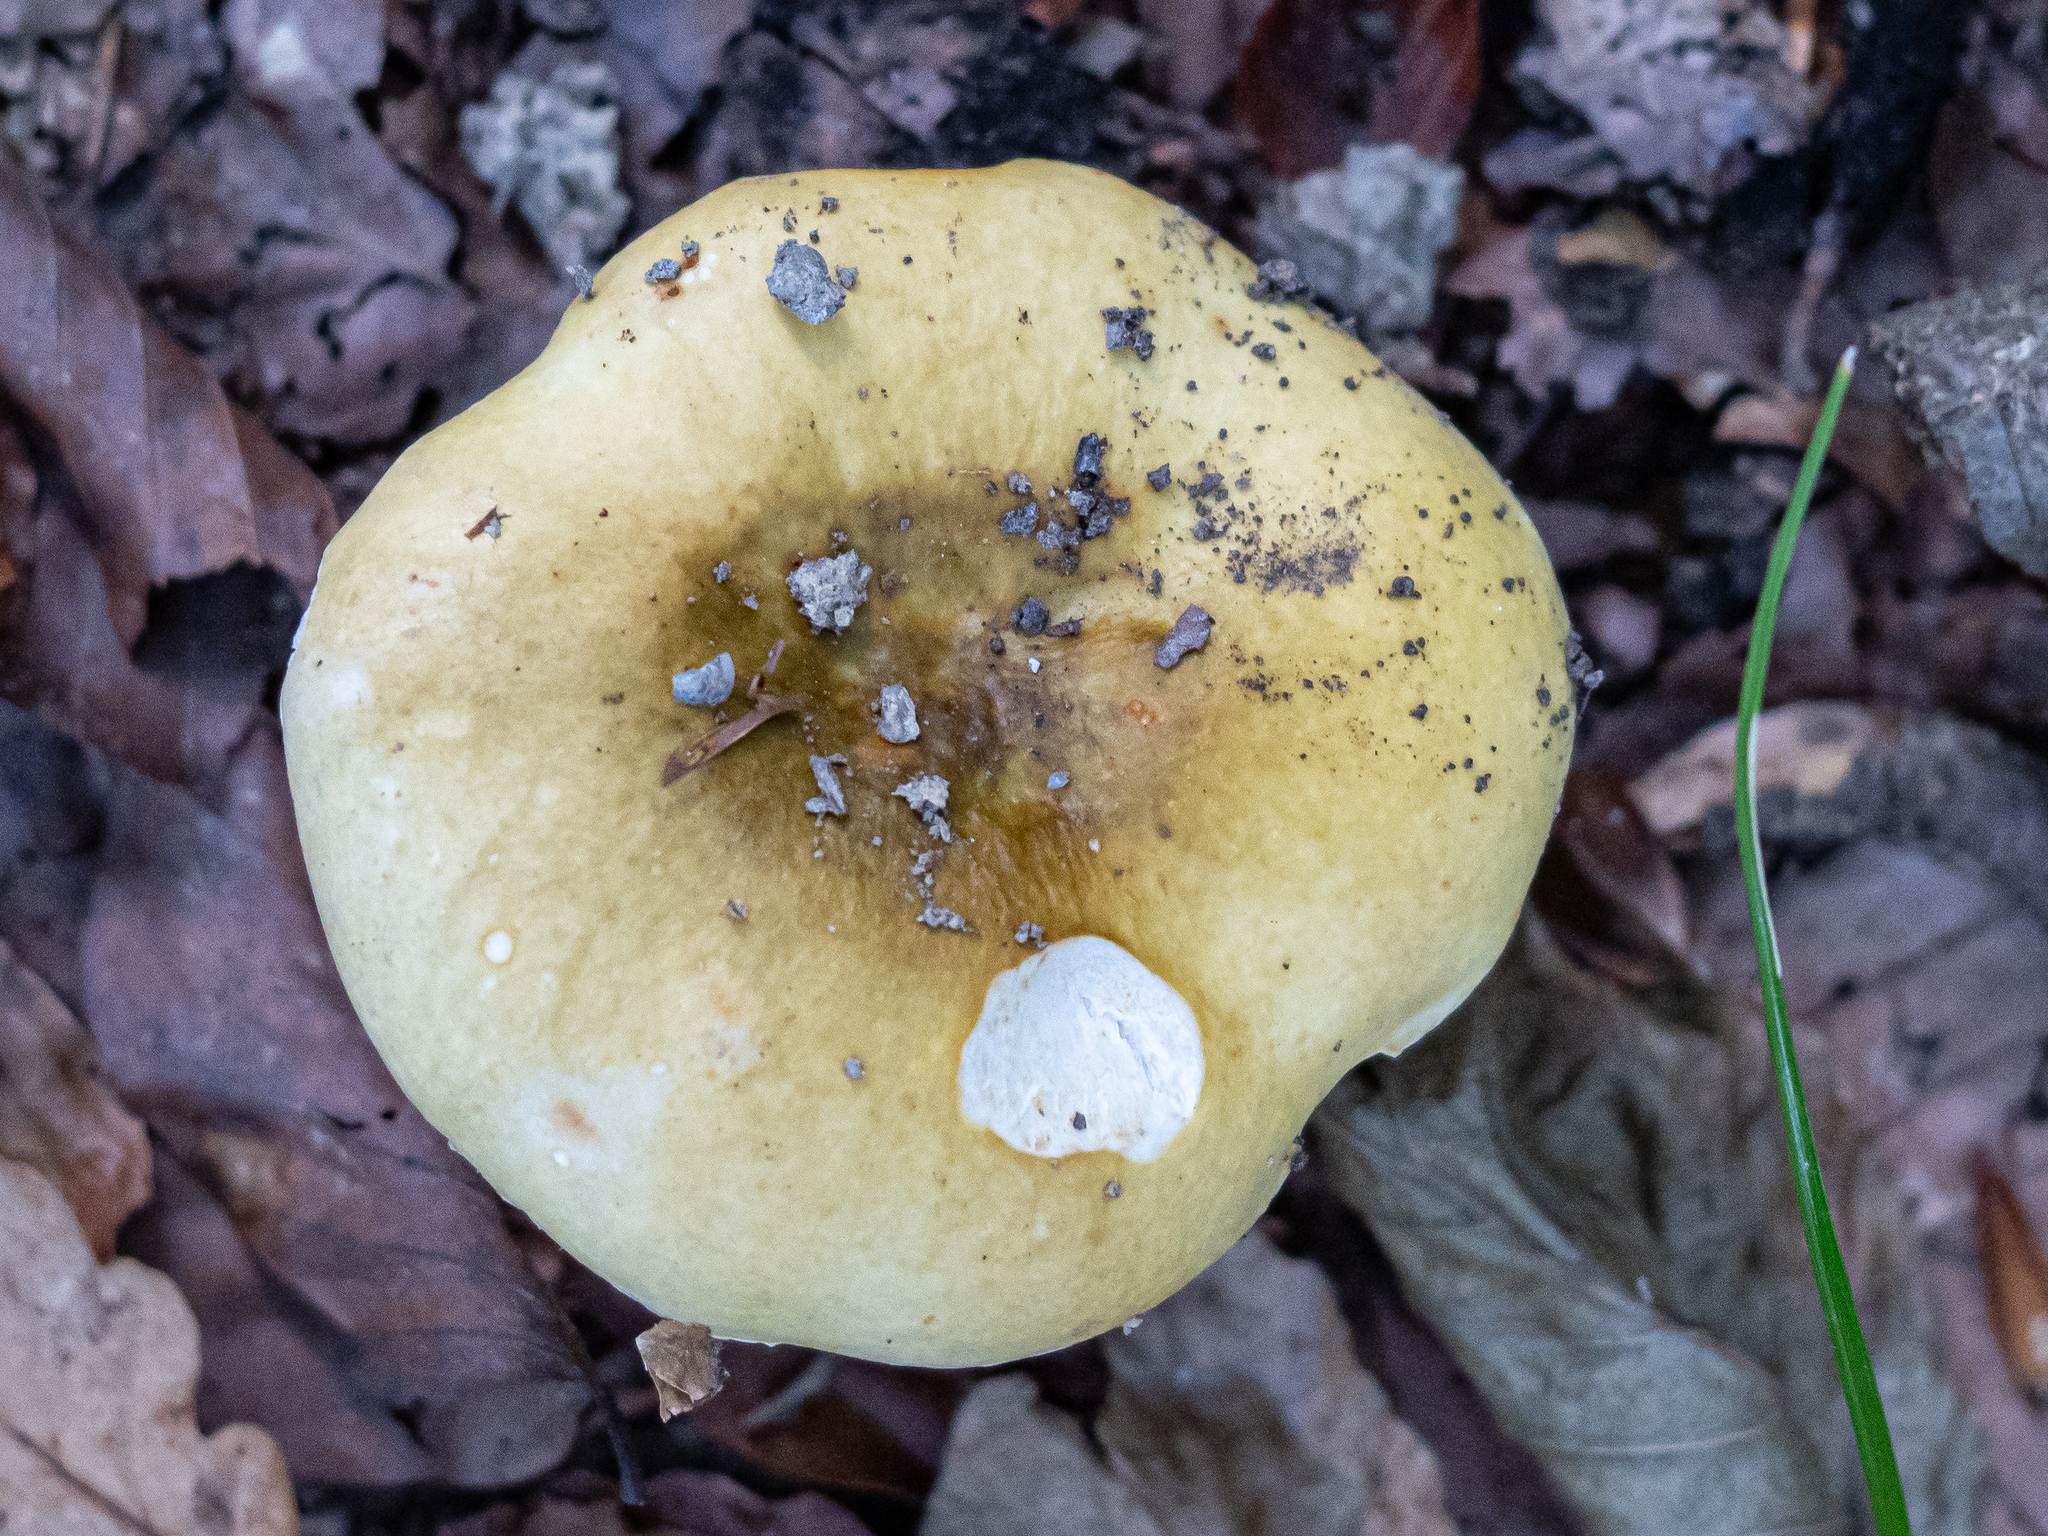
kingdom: Fungi
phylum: Basidiomycota
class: Agaricomycetes
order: Russulales
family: Russulaceae
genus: Russula
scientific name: Russula ochroleuca
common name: Common yellow russula
